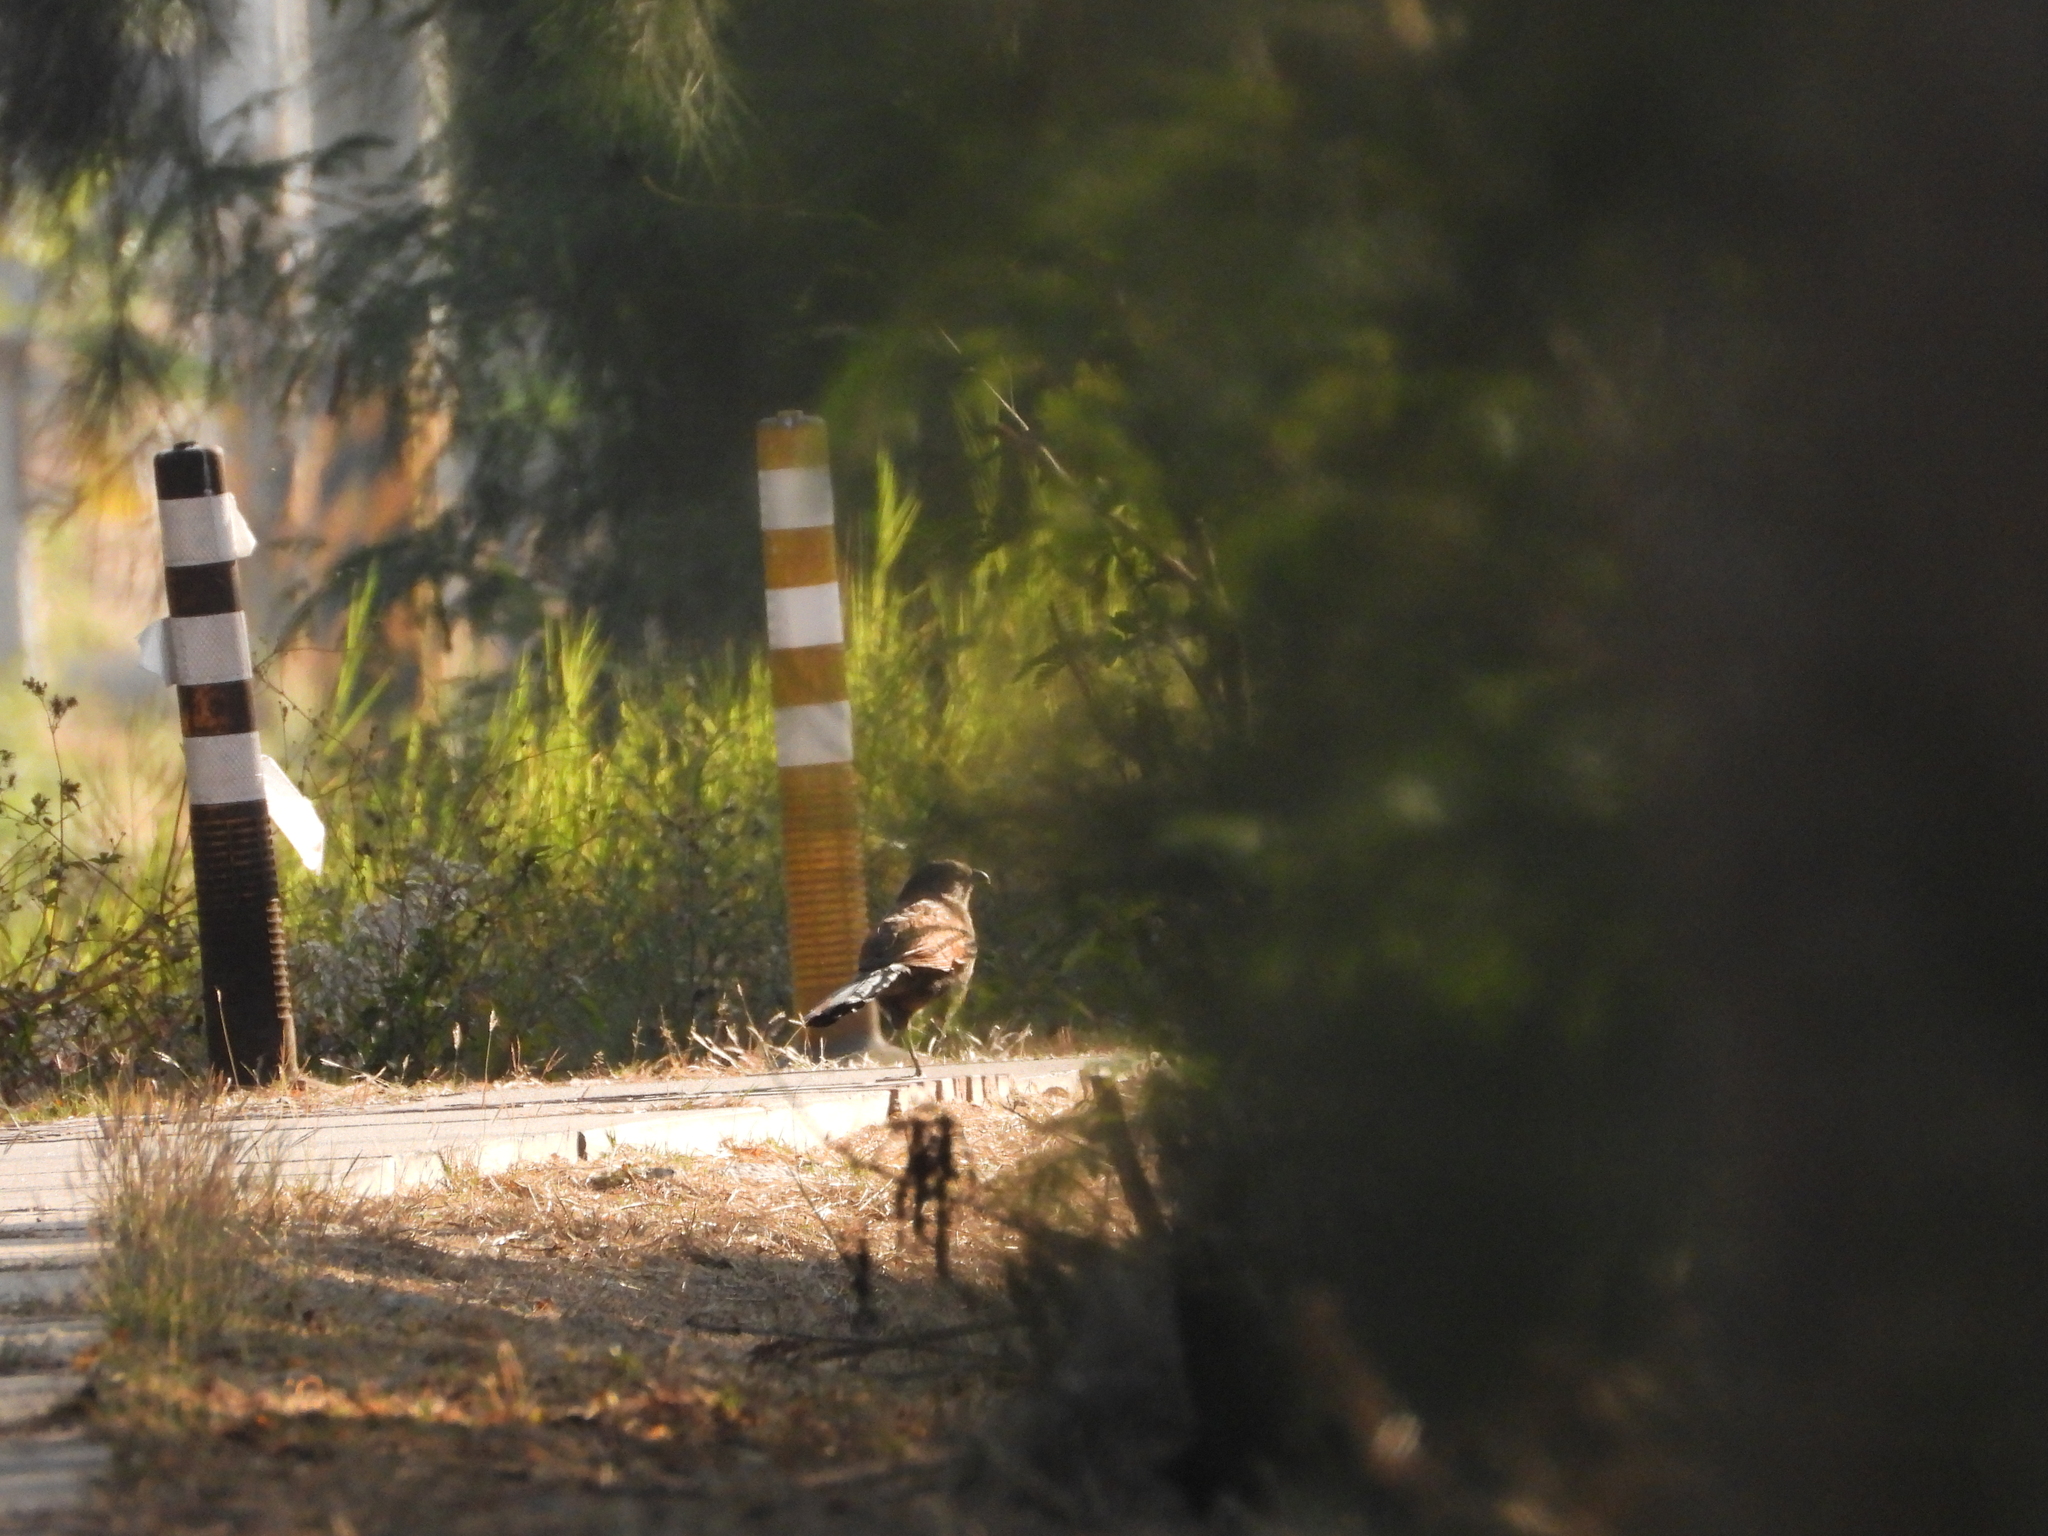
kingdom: Animalia
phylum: Chordata
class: Aves
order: Cuculiformes
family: Cuculidae
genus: Centropus
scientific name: Centropus sinensis
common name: Greater coucal
